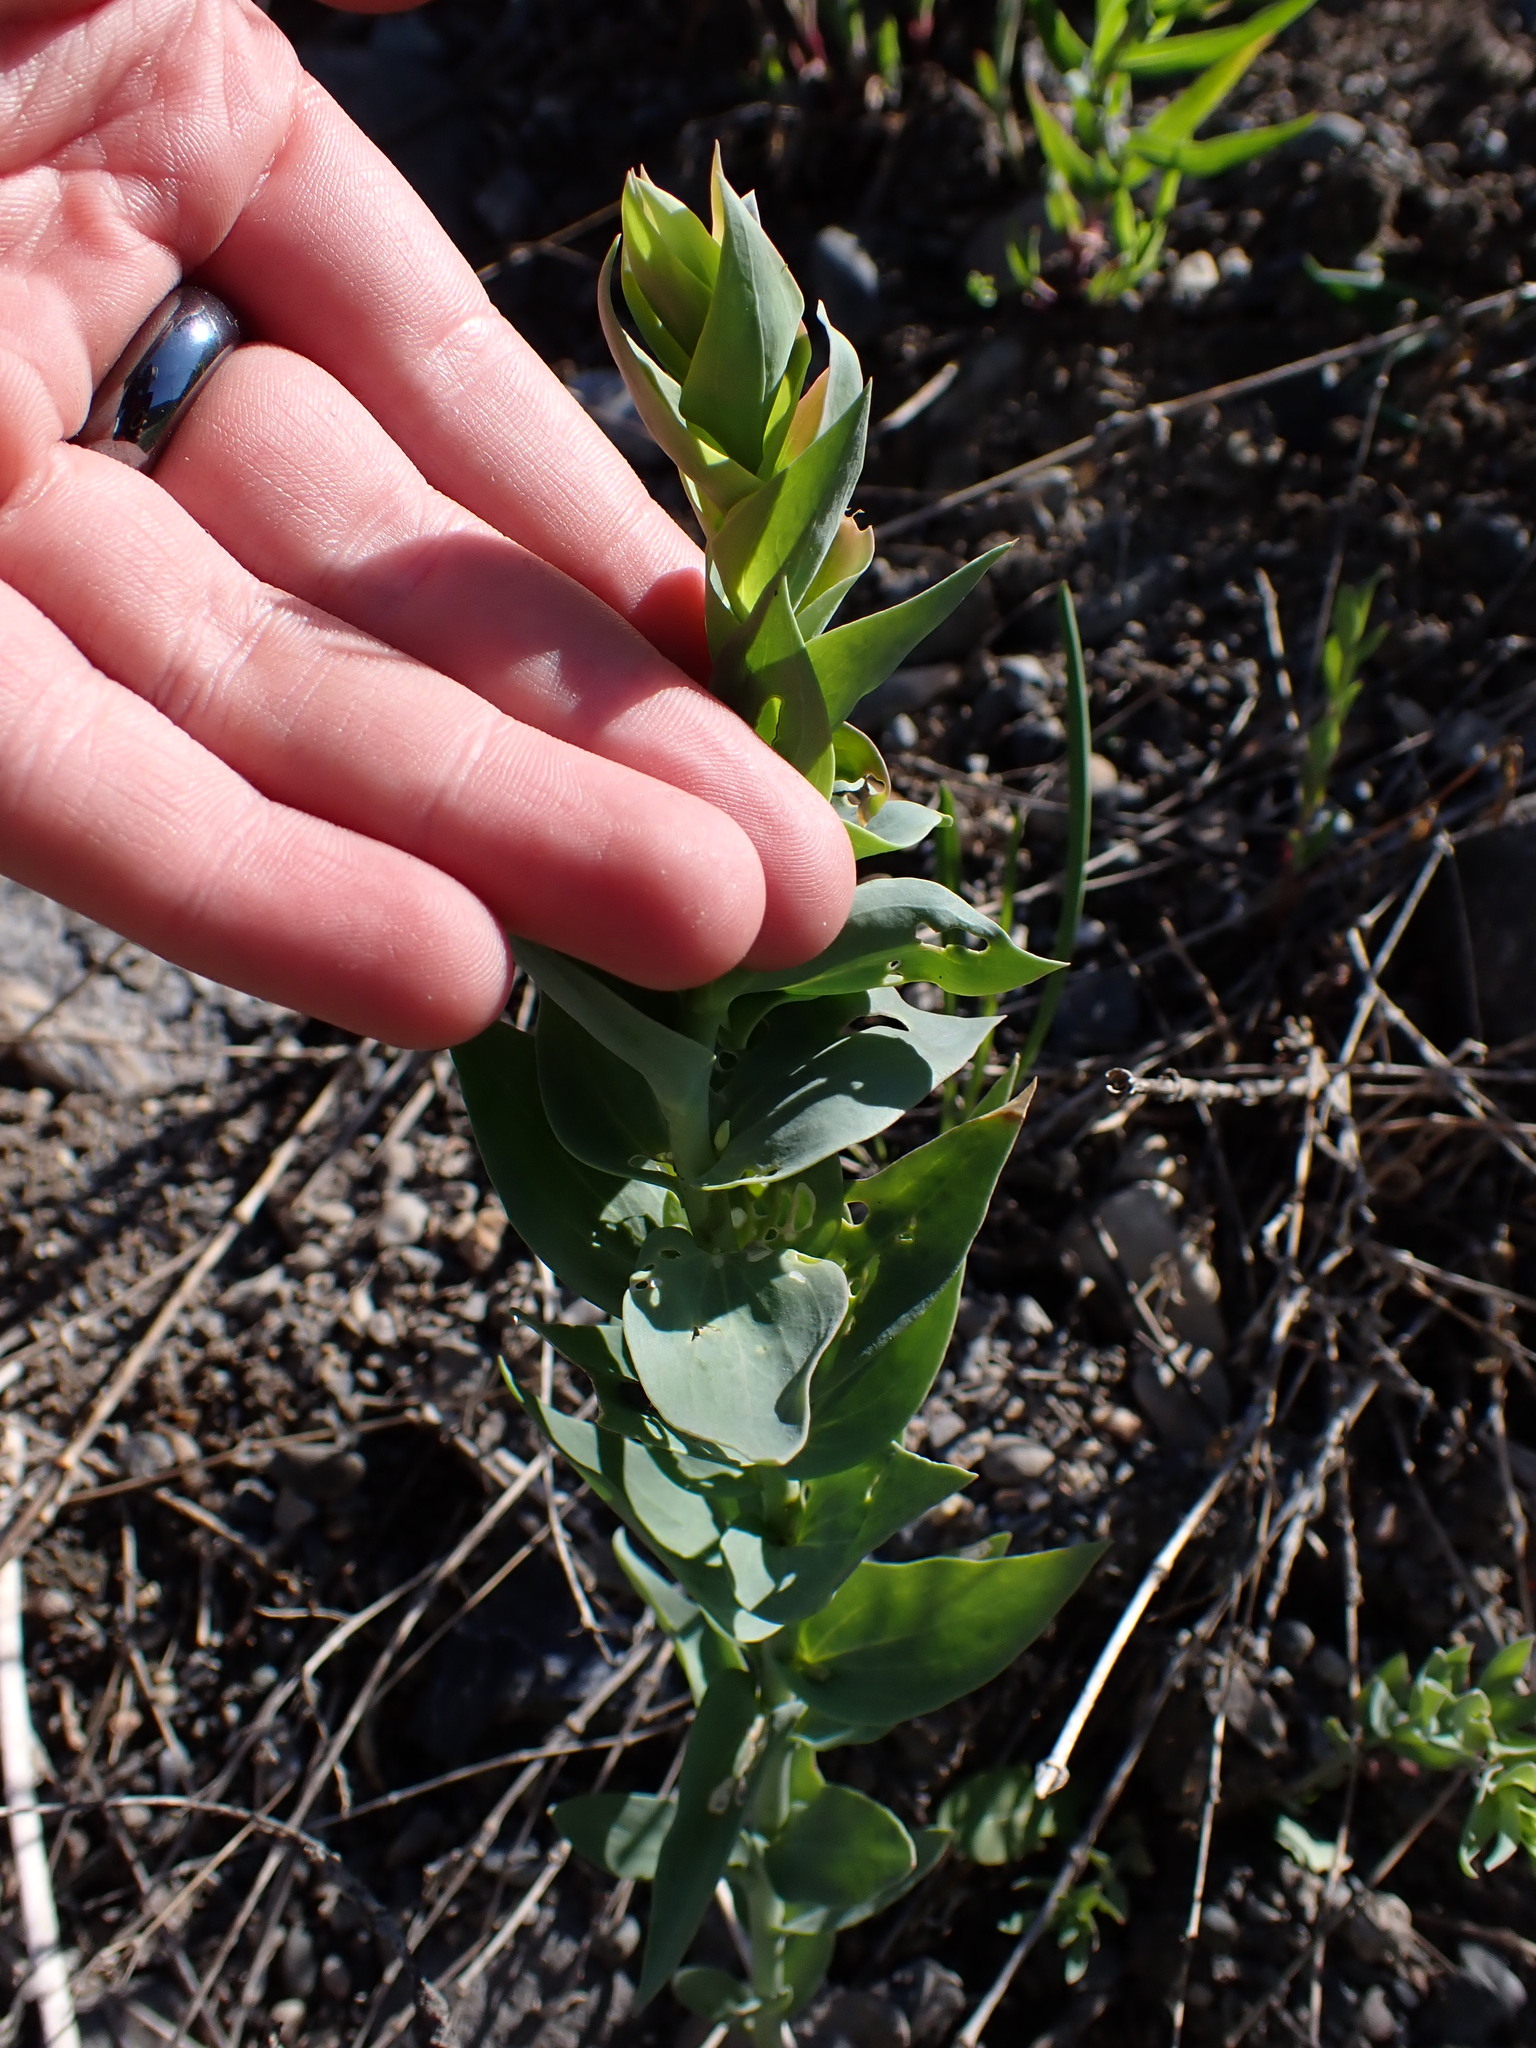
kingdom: Plantae
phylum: Tracheophyta
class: Magnoliopsida
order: Lamiales
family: Plantaginaceae
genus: Linaria
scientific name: Linaria dalmatica
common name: Dalmatian toadflax
